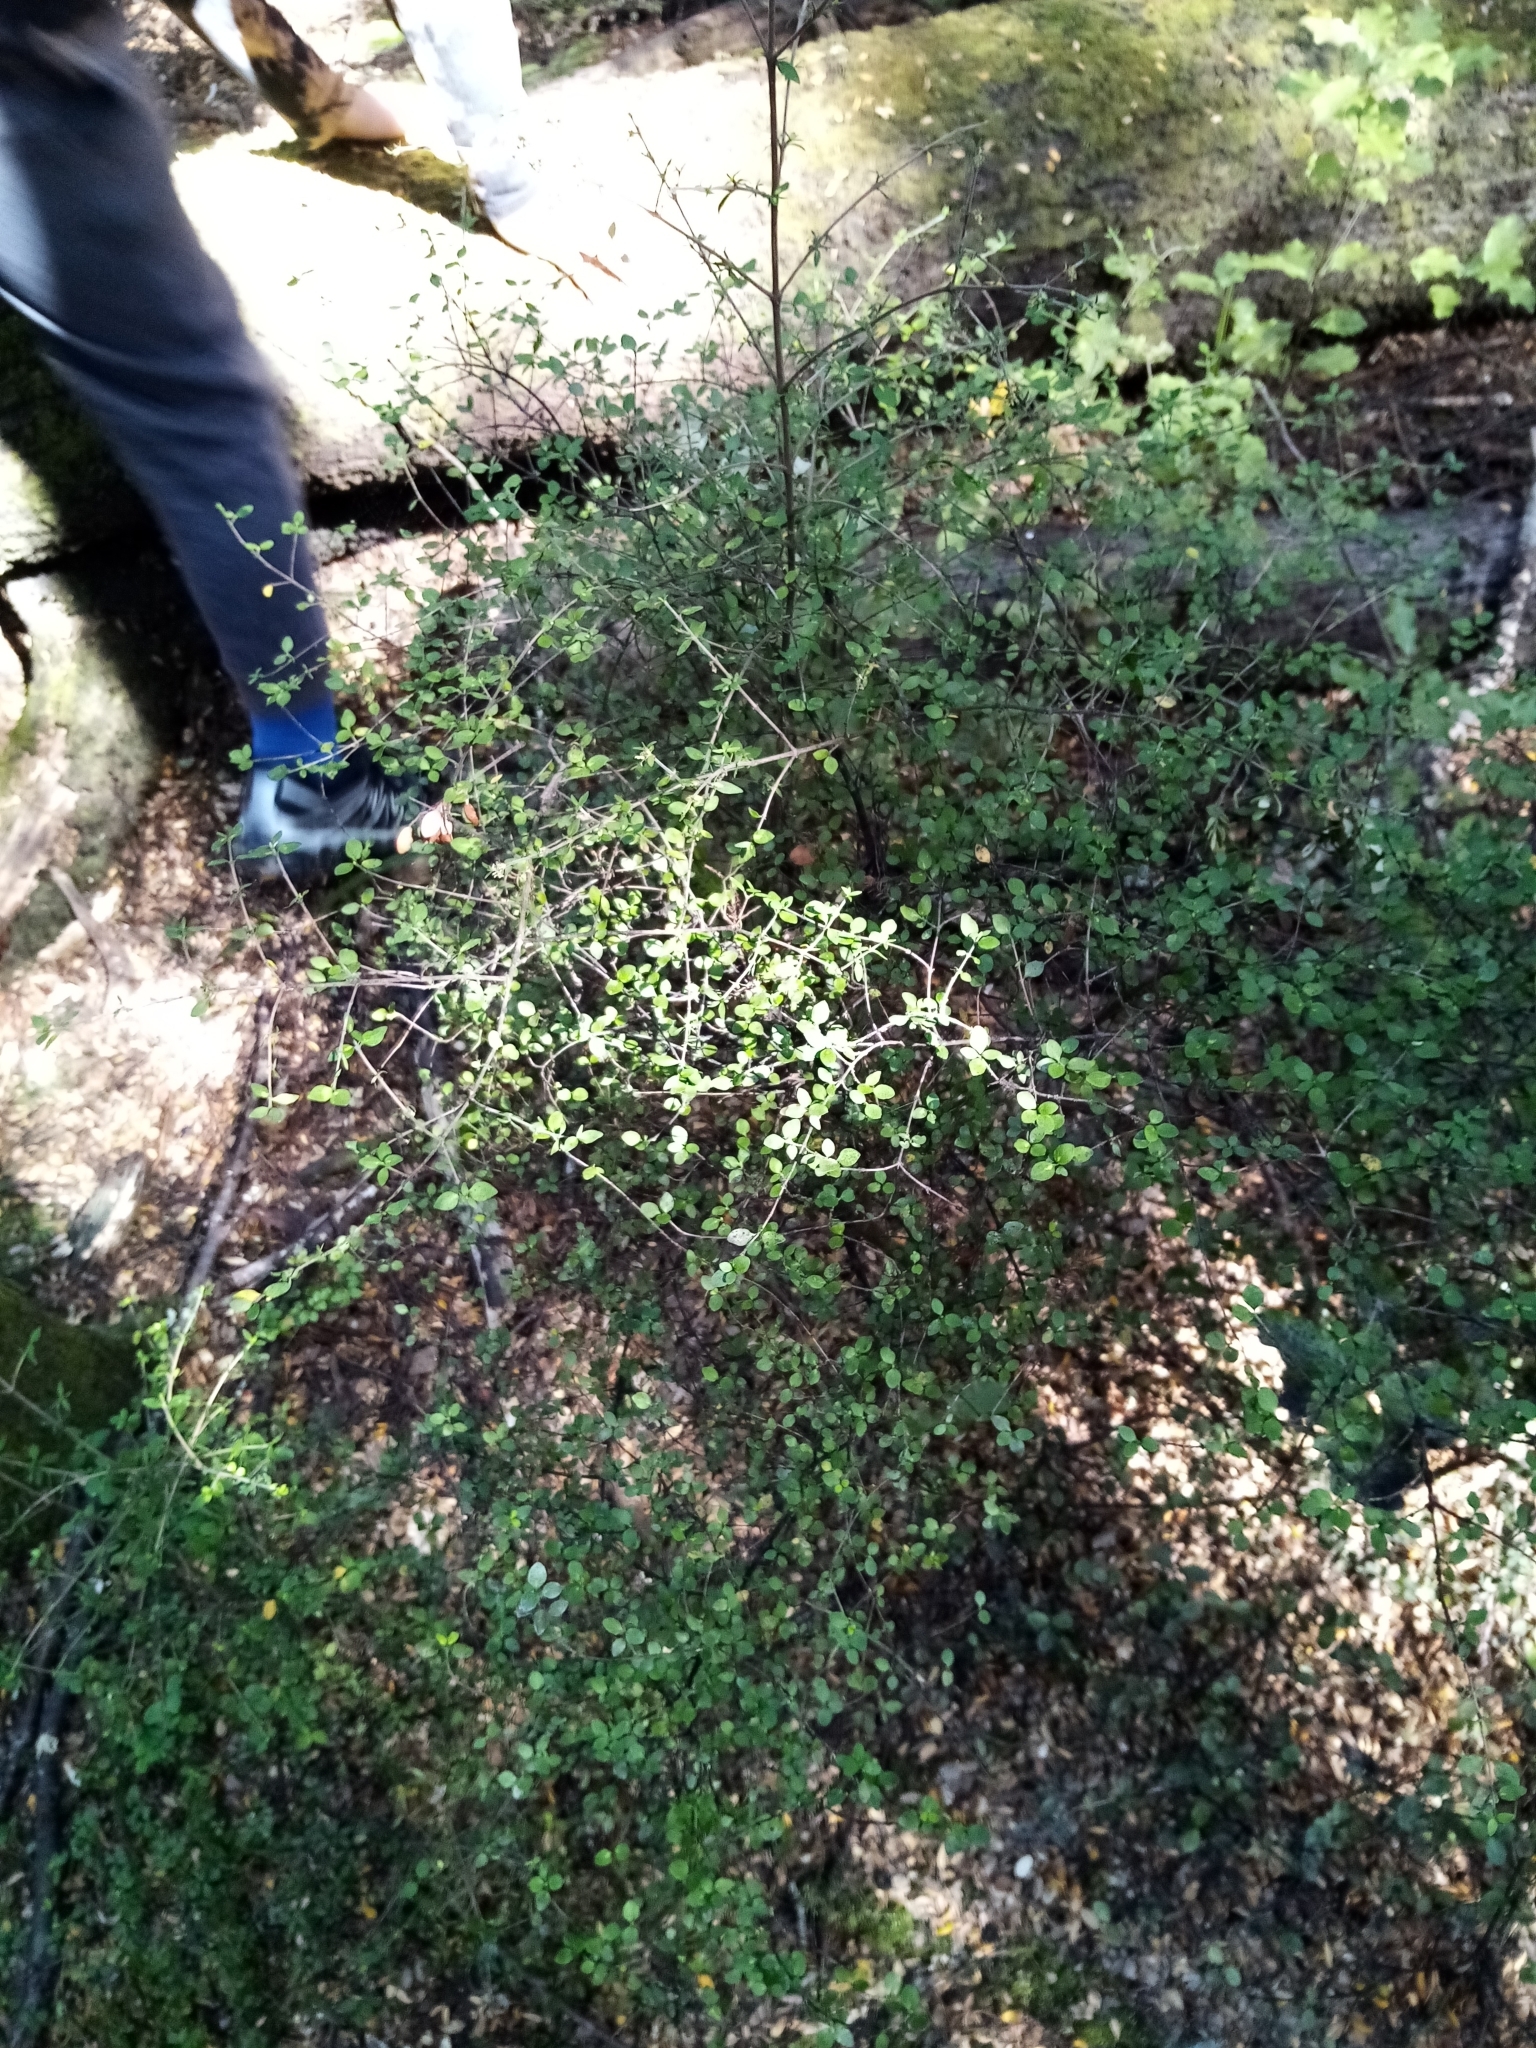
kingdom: Plantae
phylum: Tracheophyta
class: Magnoliopsida
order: Gentianales
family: Rubiaceae
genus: Coprosma
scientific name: Coprosma rhamnoides
